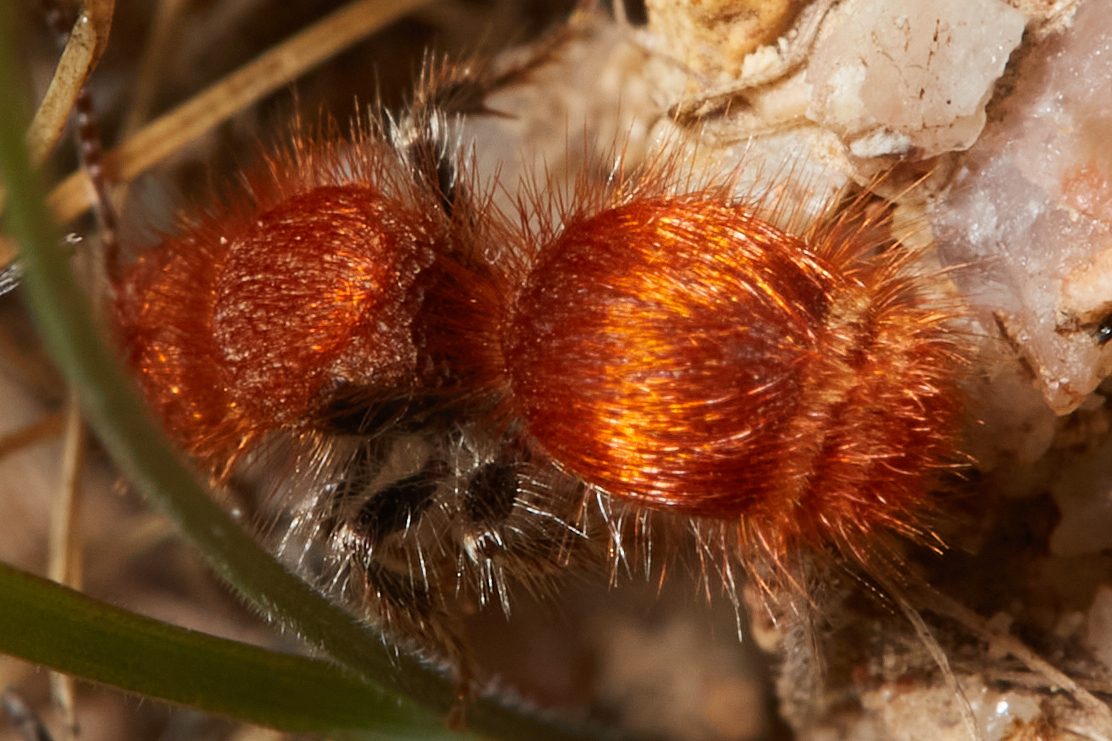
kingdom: Animalia
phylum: Arthropoda
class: Insecta
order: Hymenoptera
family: Mutillidae
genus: Sphaeropthalma
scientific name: Sphaeropthalma unicolor
